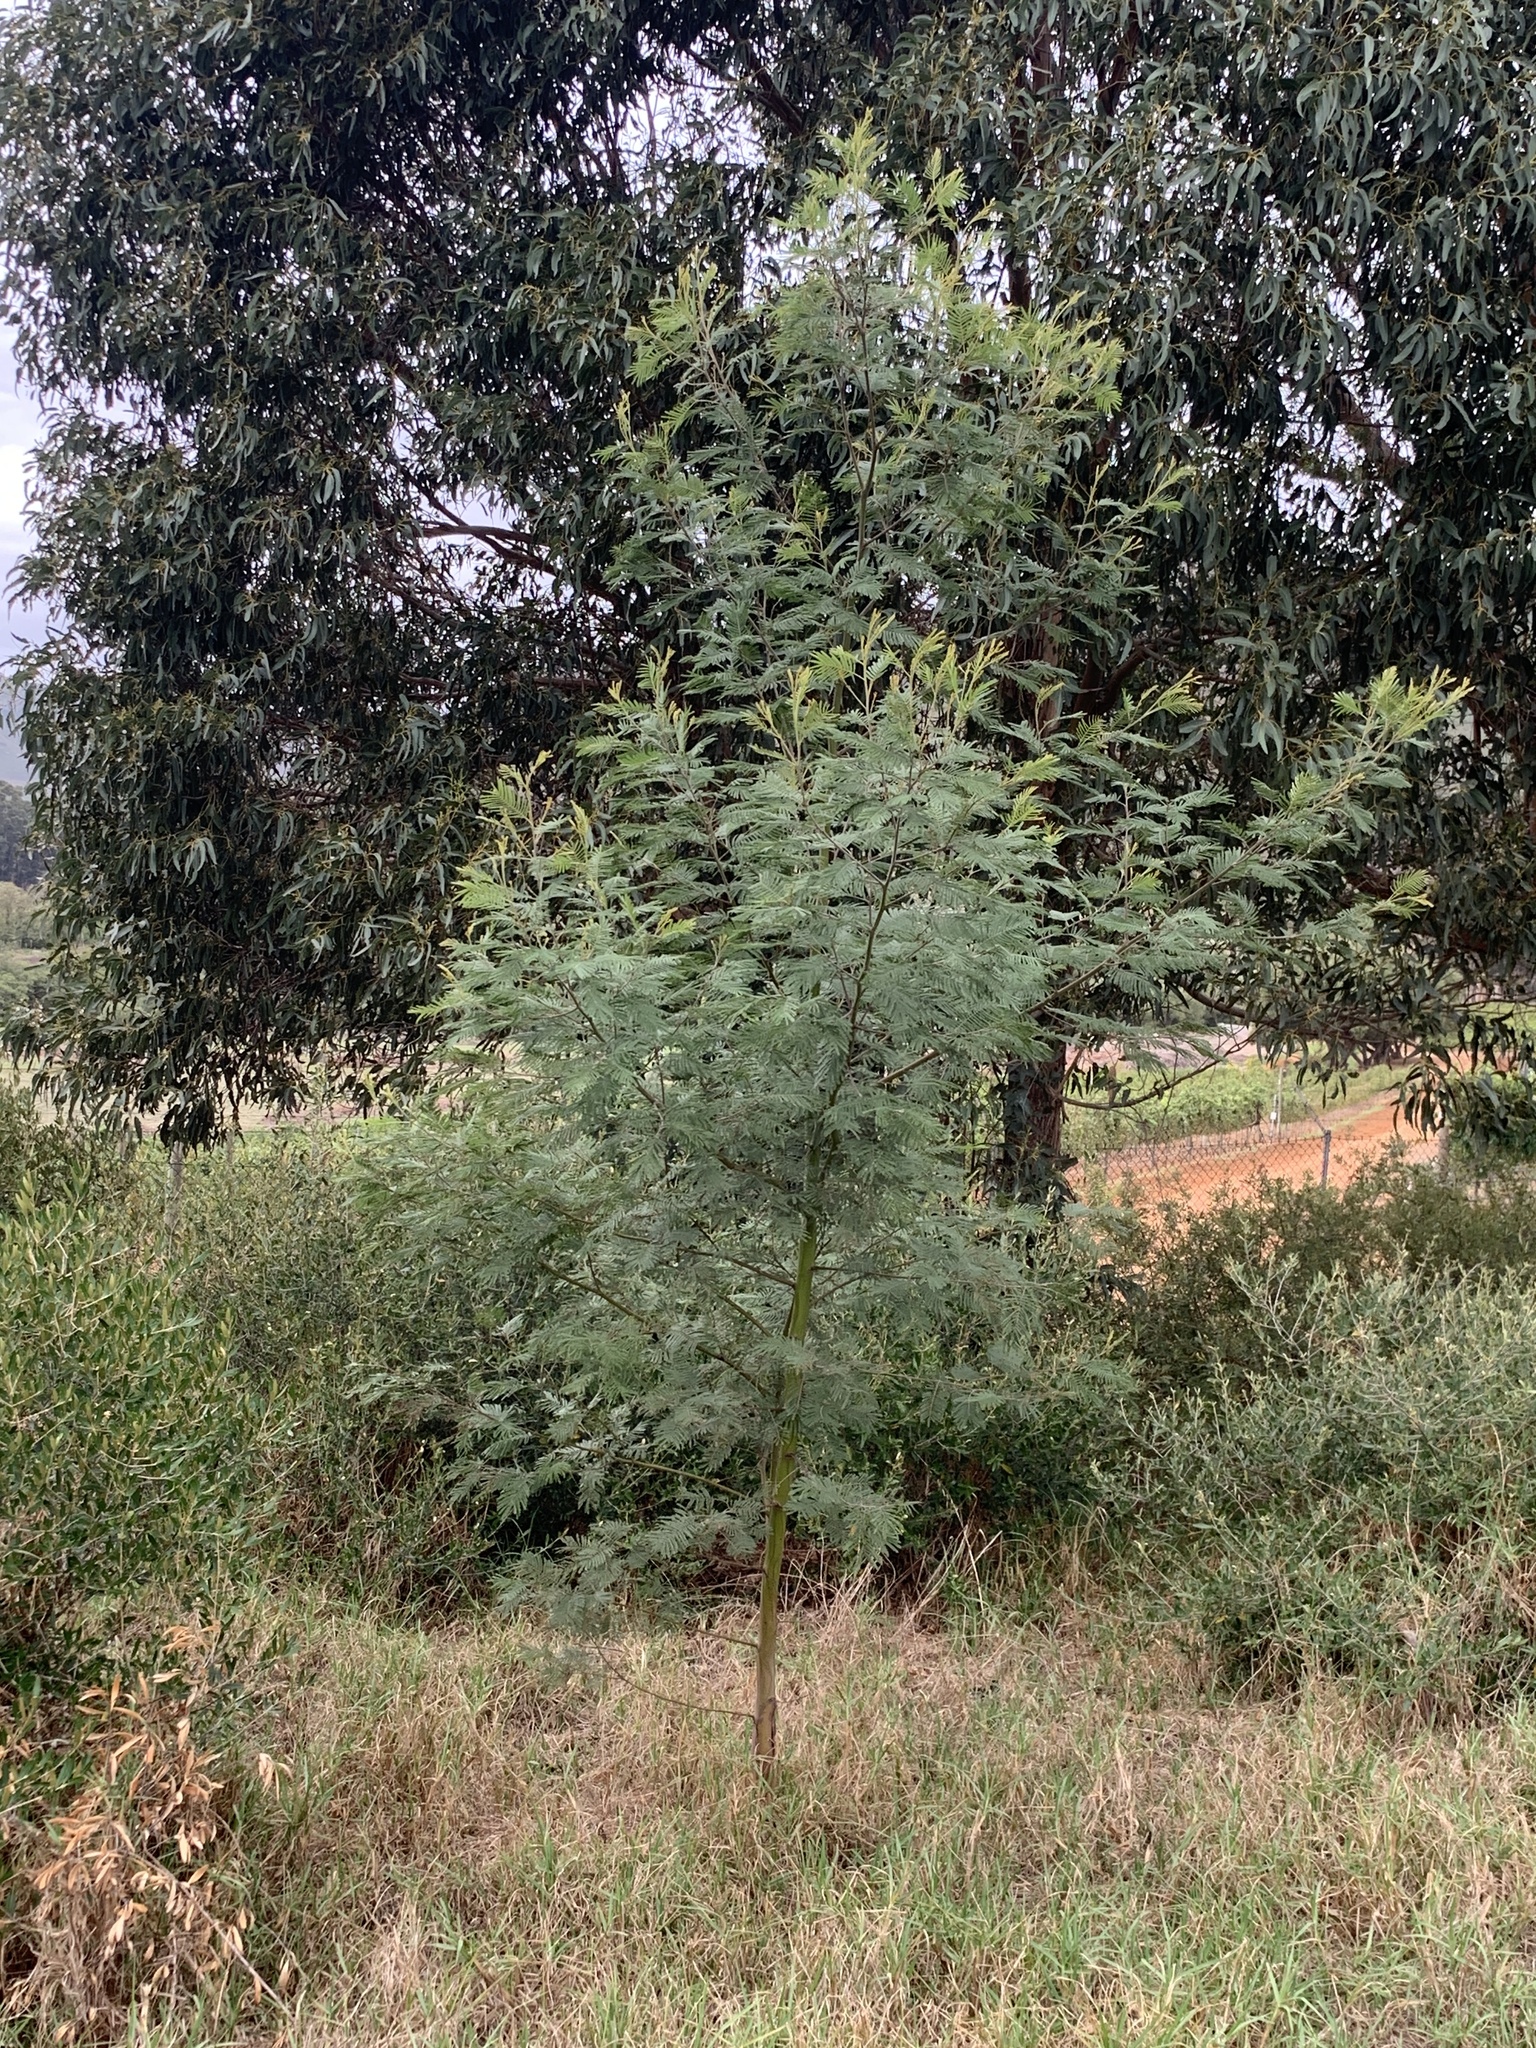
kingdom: Plantae
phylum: Tracheophyta
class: Magnoliopsida
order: Fabales
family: Fabaceae
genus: Acacia
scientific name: Acacia mearnsii
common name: Black wattle
